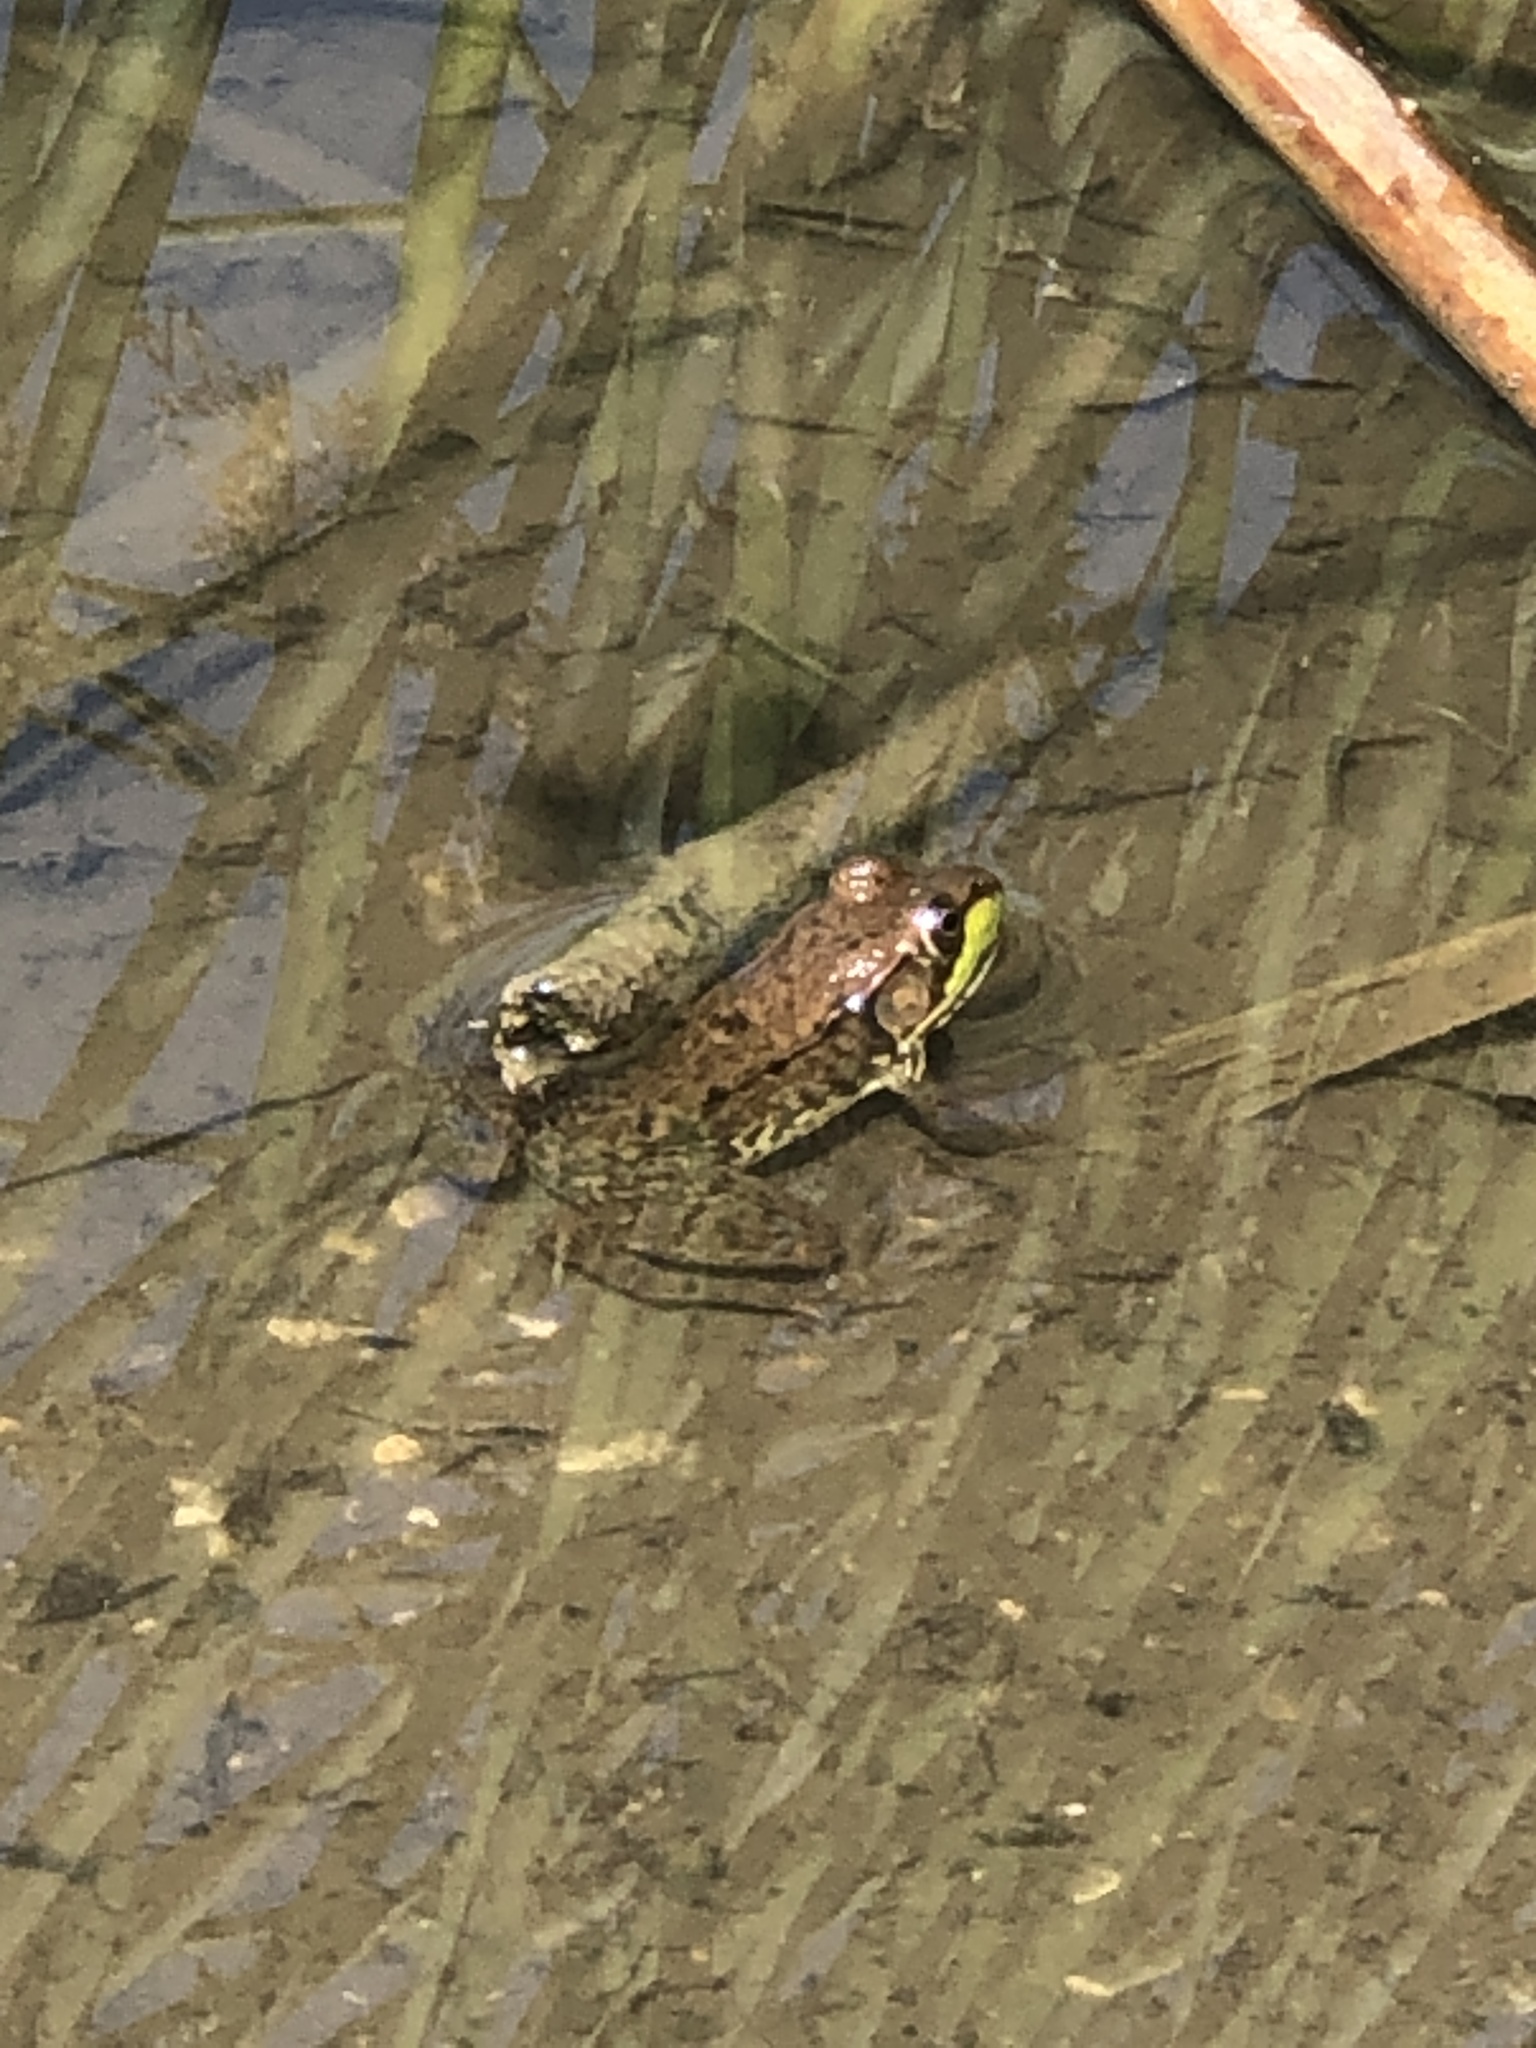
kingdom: Animalia
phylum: Chordata
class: Amphibia
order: Anura
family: Ranidae
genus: Lithobates
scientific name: Lithobates clamitans
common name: Green frog
